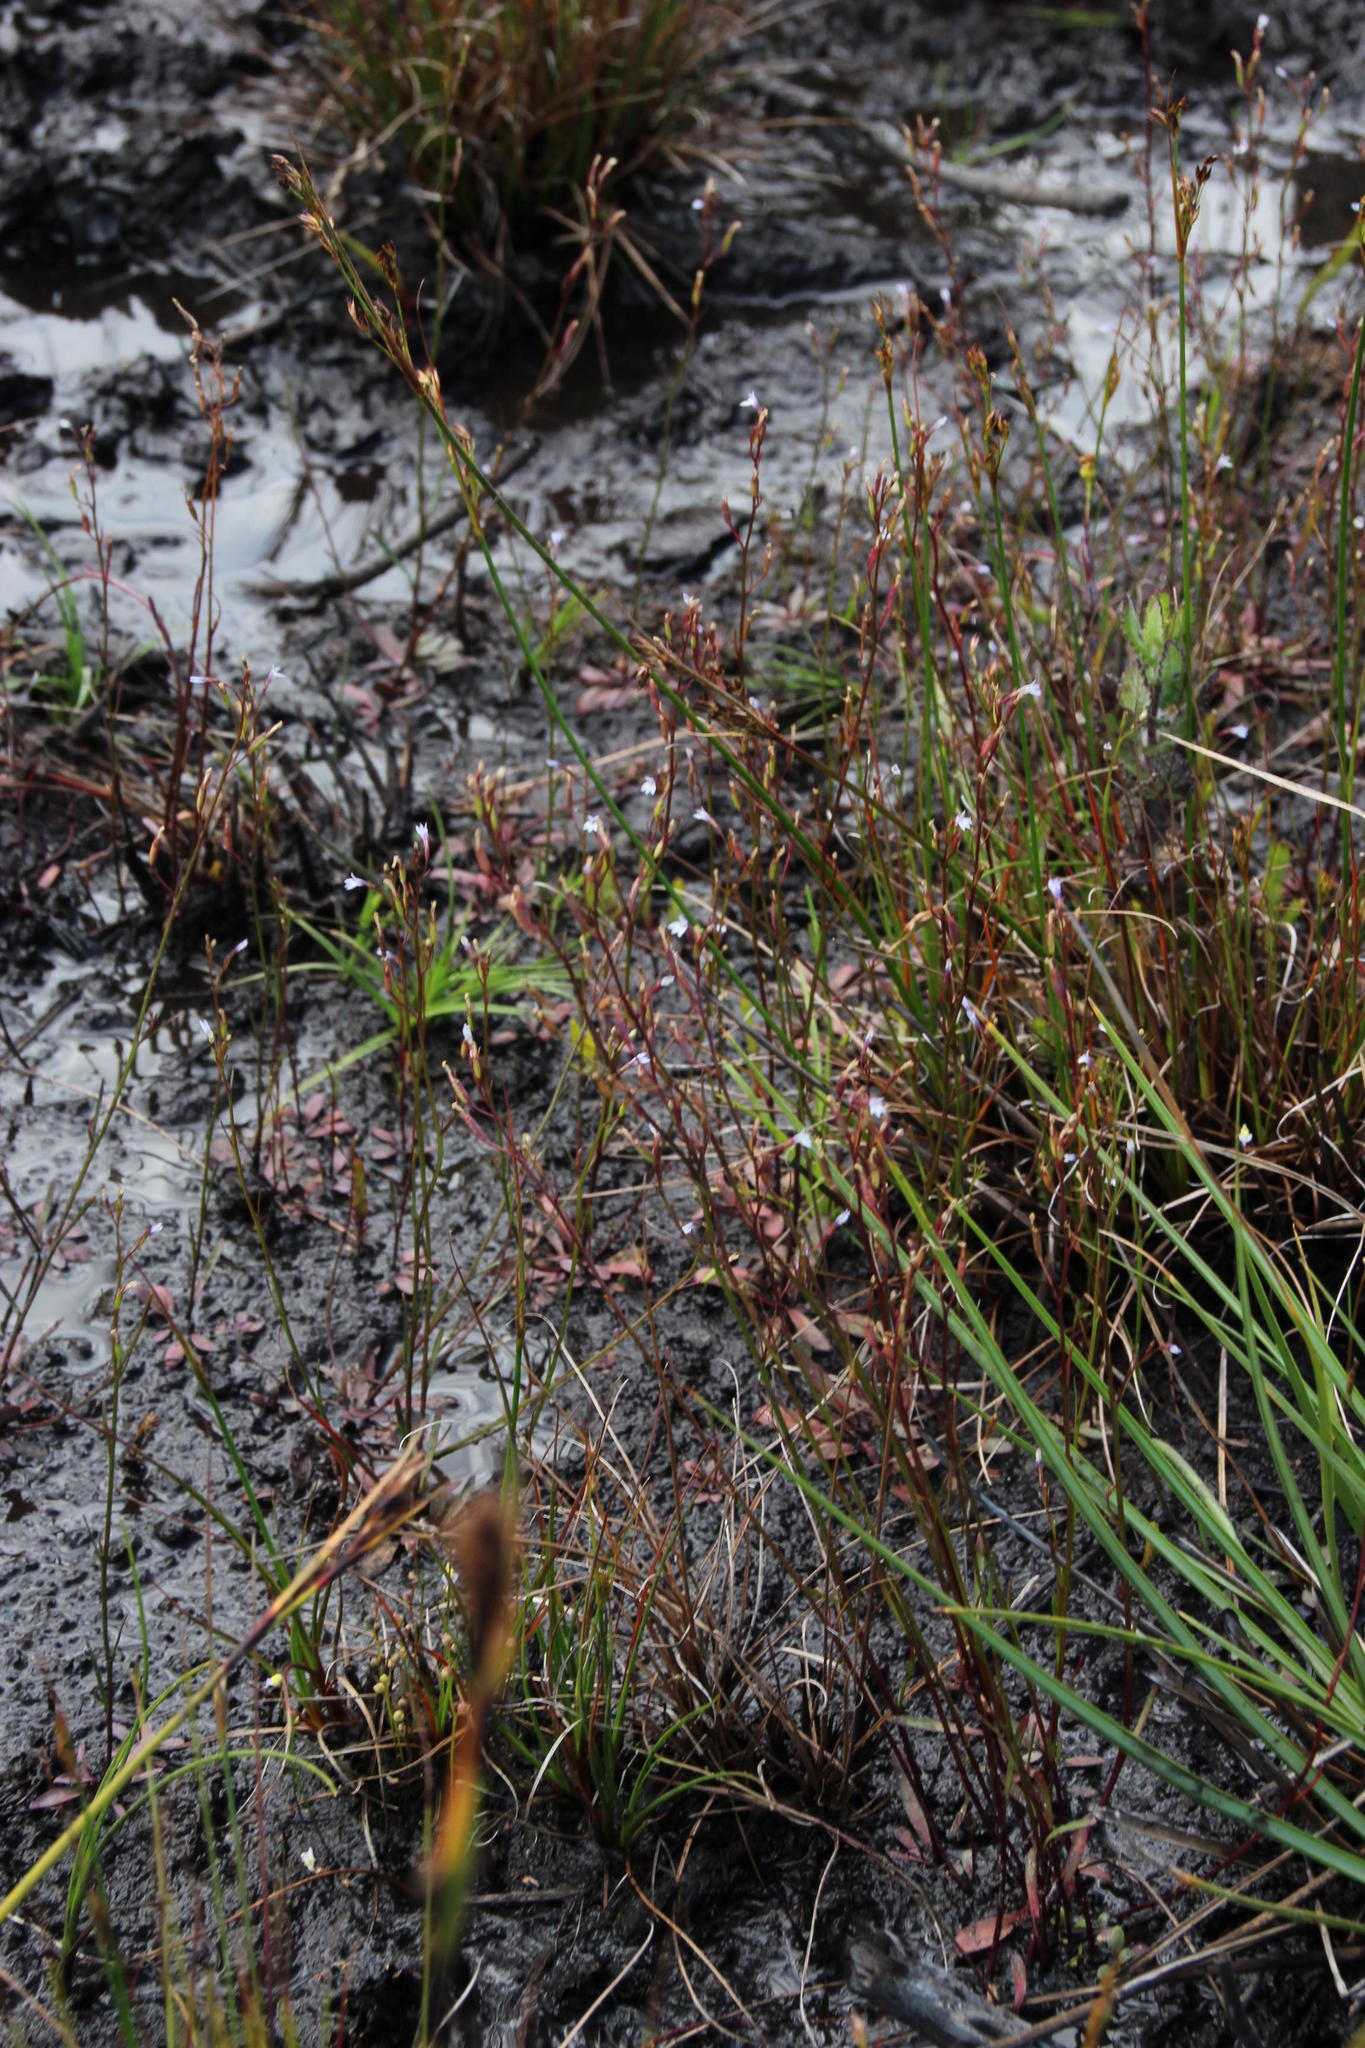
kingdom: Plantae
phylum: Tracheophyta
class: Magnoliopsida
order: Asterales
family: Campanulaceae
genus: Wimmerella
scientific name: Wimmerella arabidea
